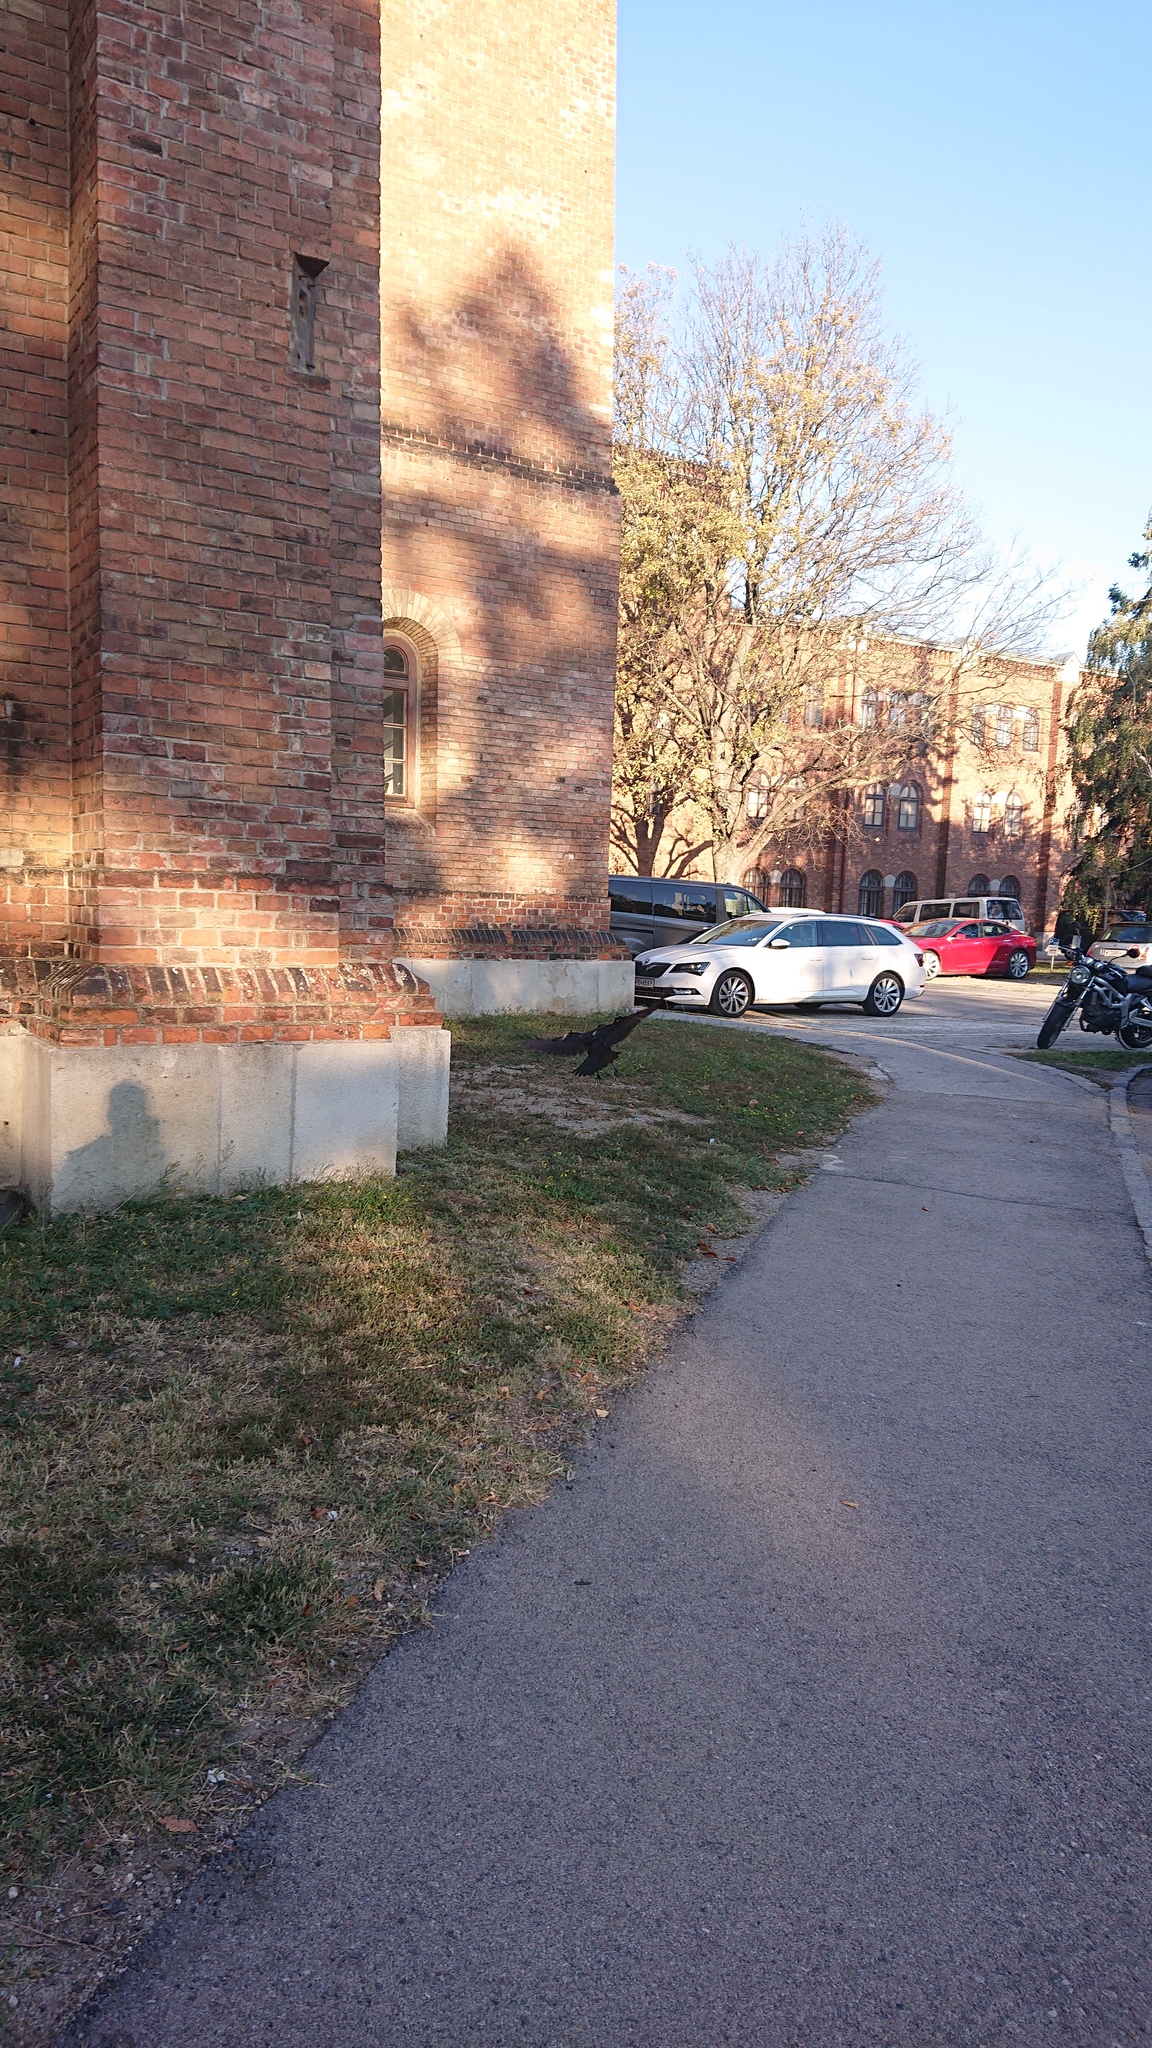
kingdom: Animalia
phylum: Chordata
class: Aves
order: Passeriformes
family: Corvidae
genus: Corvus
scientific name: Corvus corone
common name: Carrion crow
